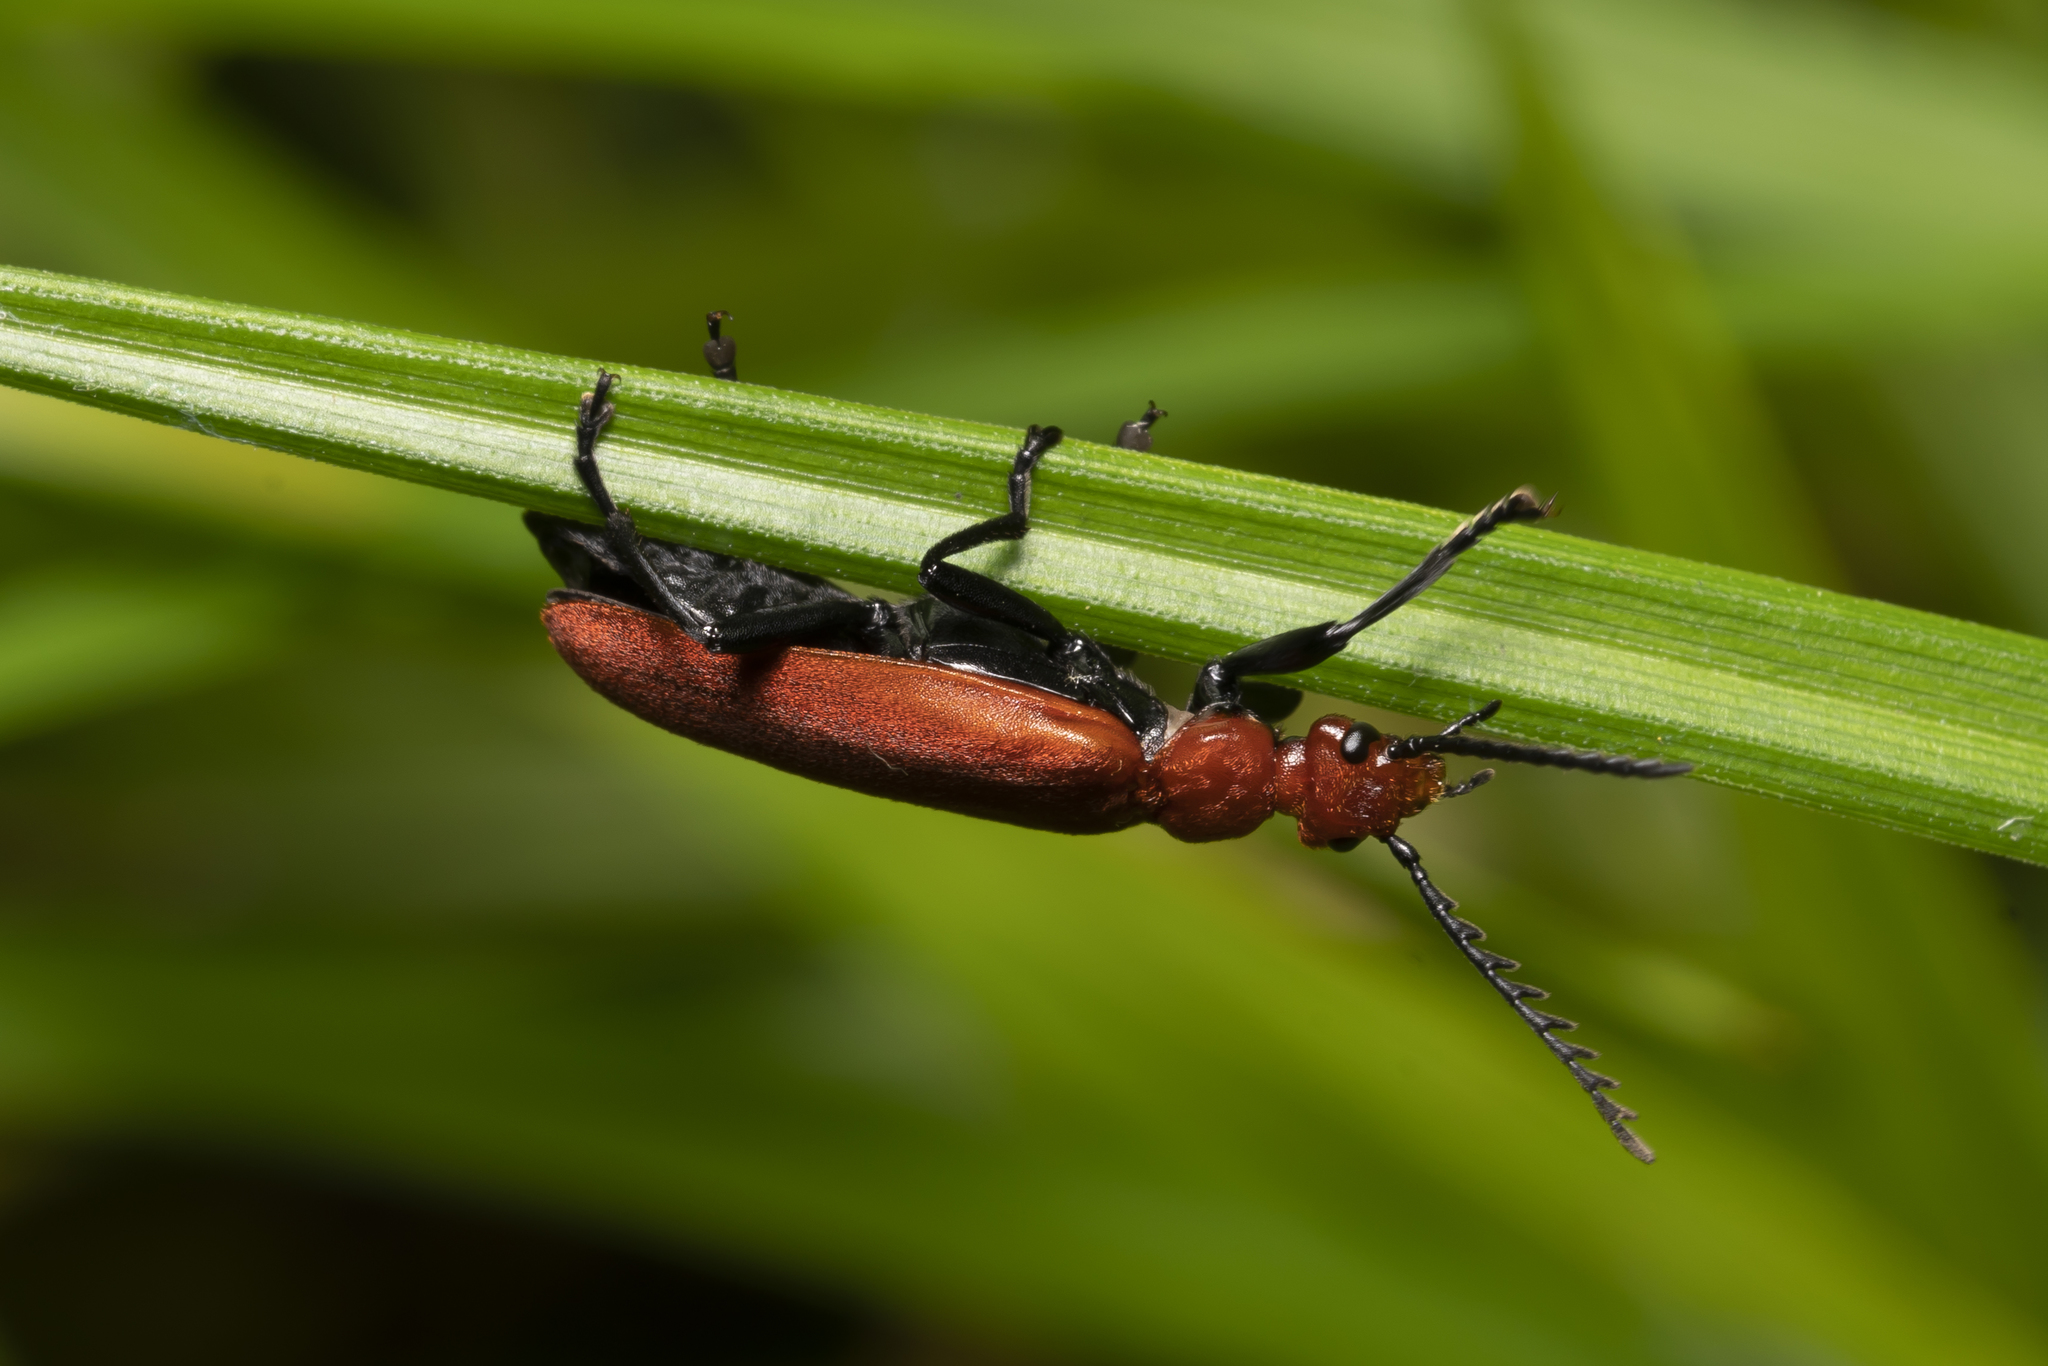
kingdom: Animalia
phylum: Arthropoda
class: Insecta
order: Coleoptera
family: Pyrochroidae
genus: Pyrochroa
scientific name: Pyrochroa serraticornis
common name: Red-headed cardinal beetle
